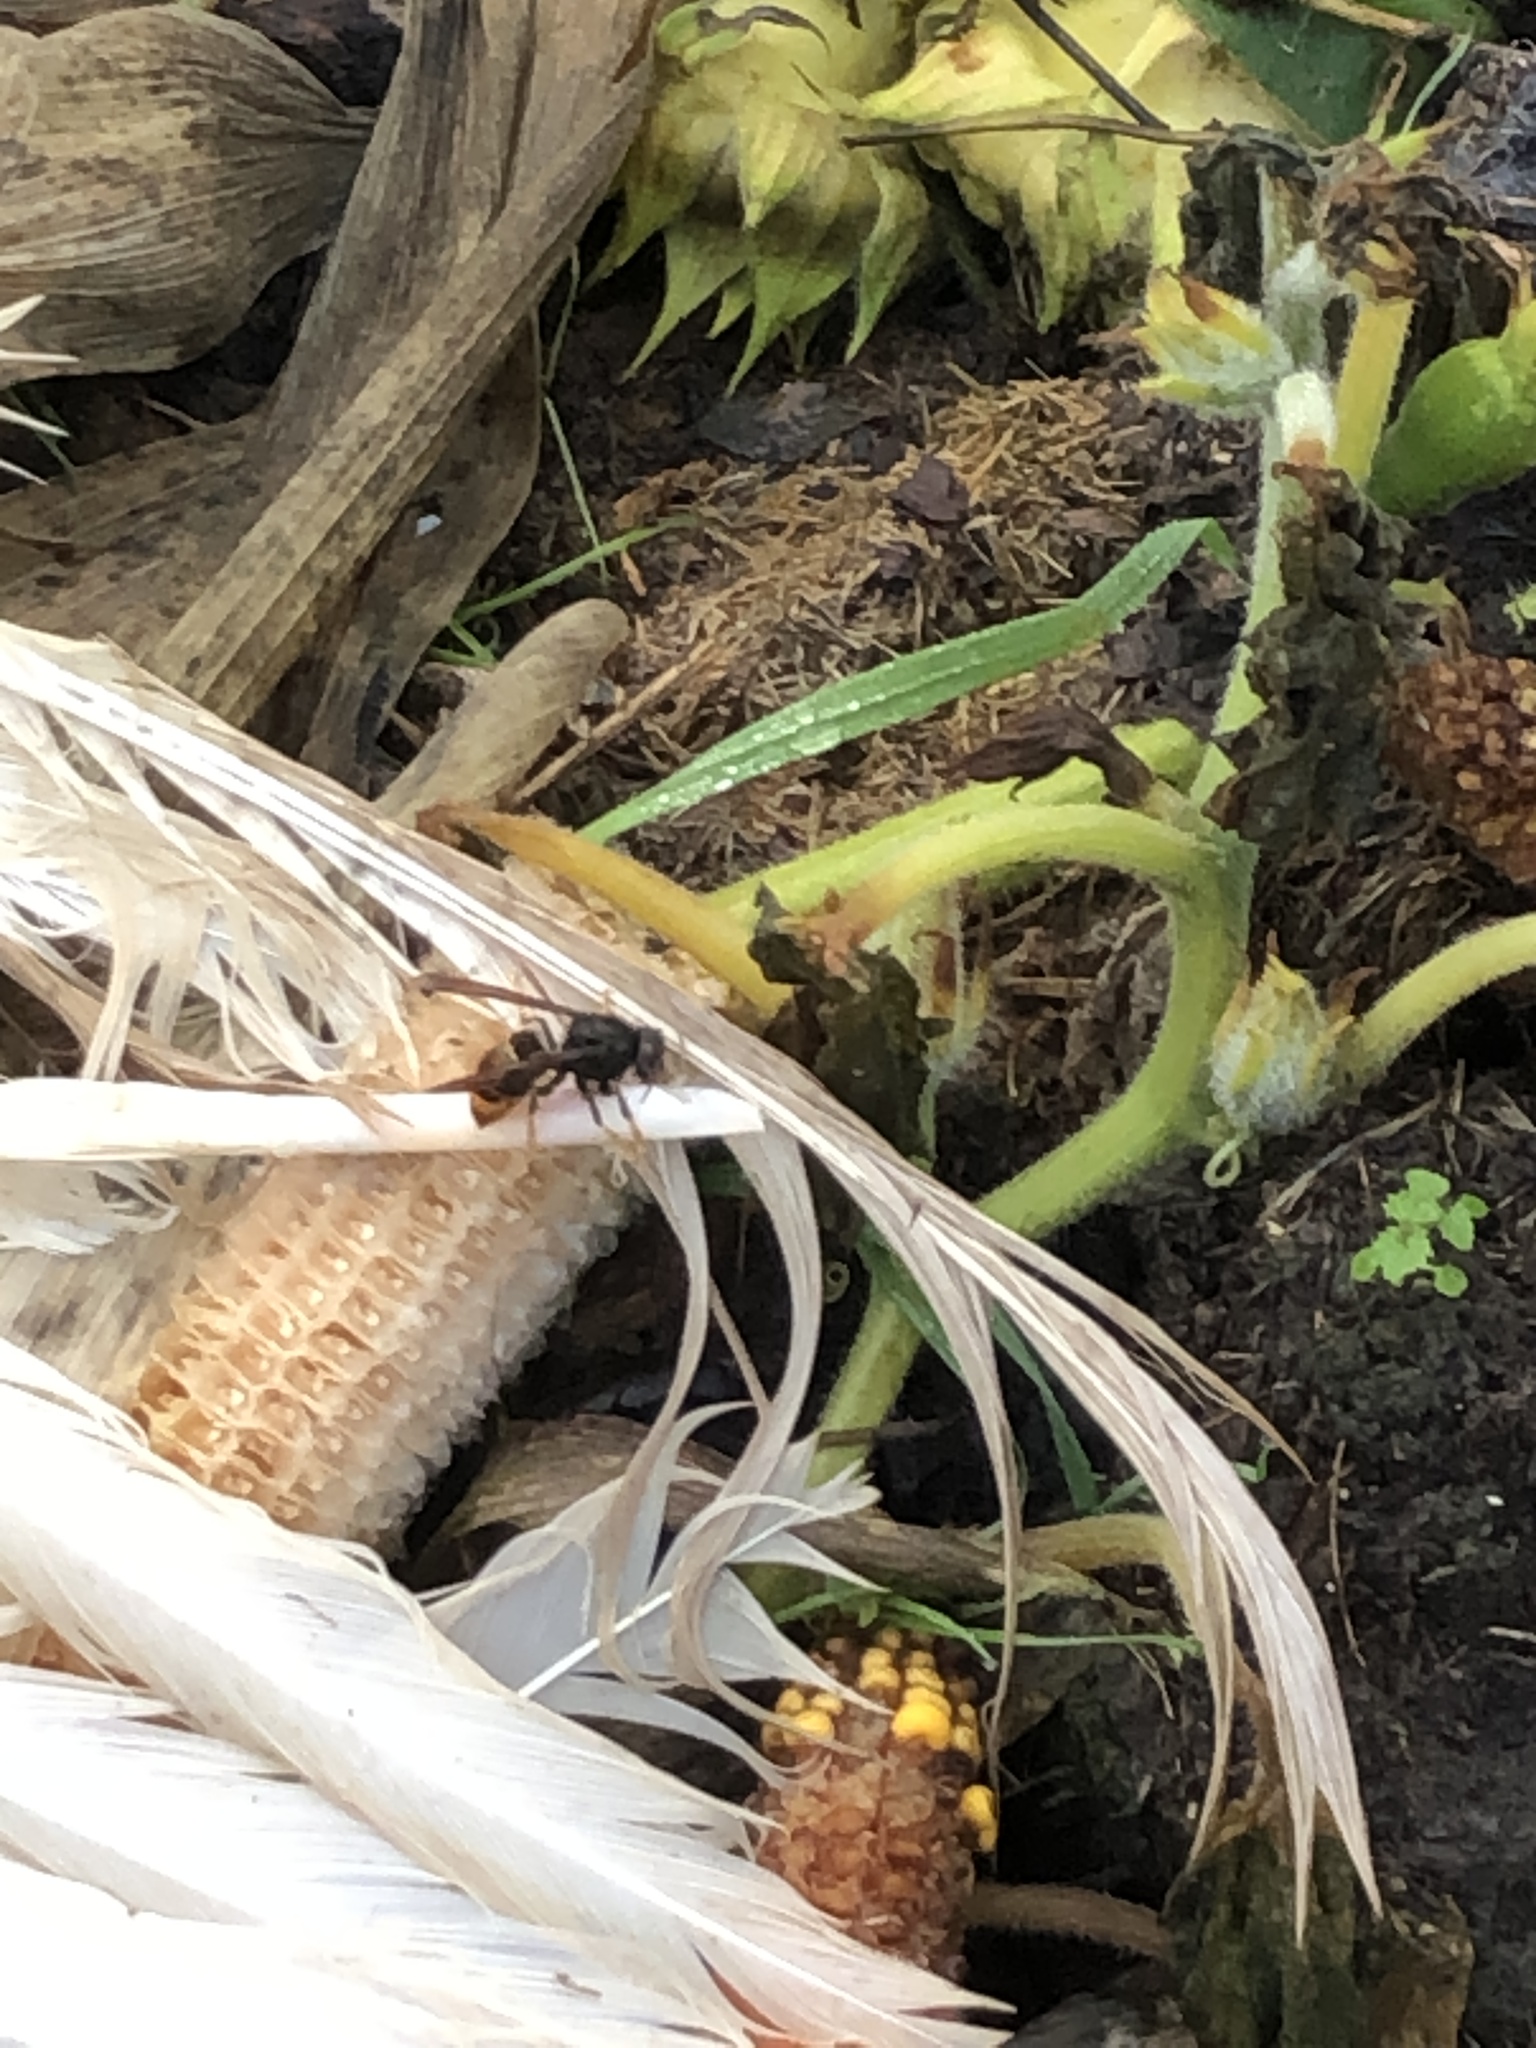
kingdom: Animalia
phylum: Arthropoda
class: Insecta
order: Hymenoptera
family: Vespidae
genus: Vespa
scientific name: Vespa velutina
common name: Asian hornet
